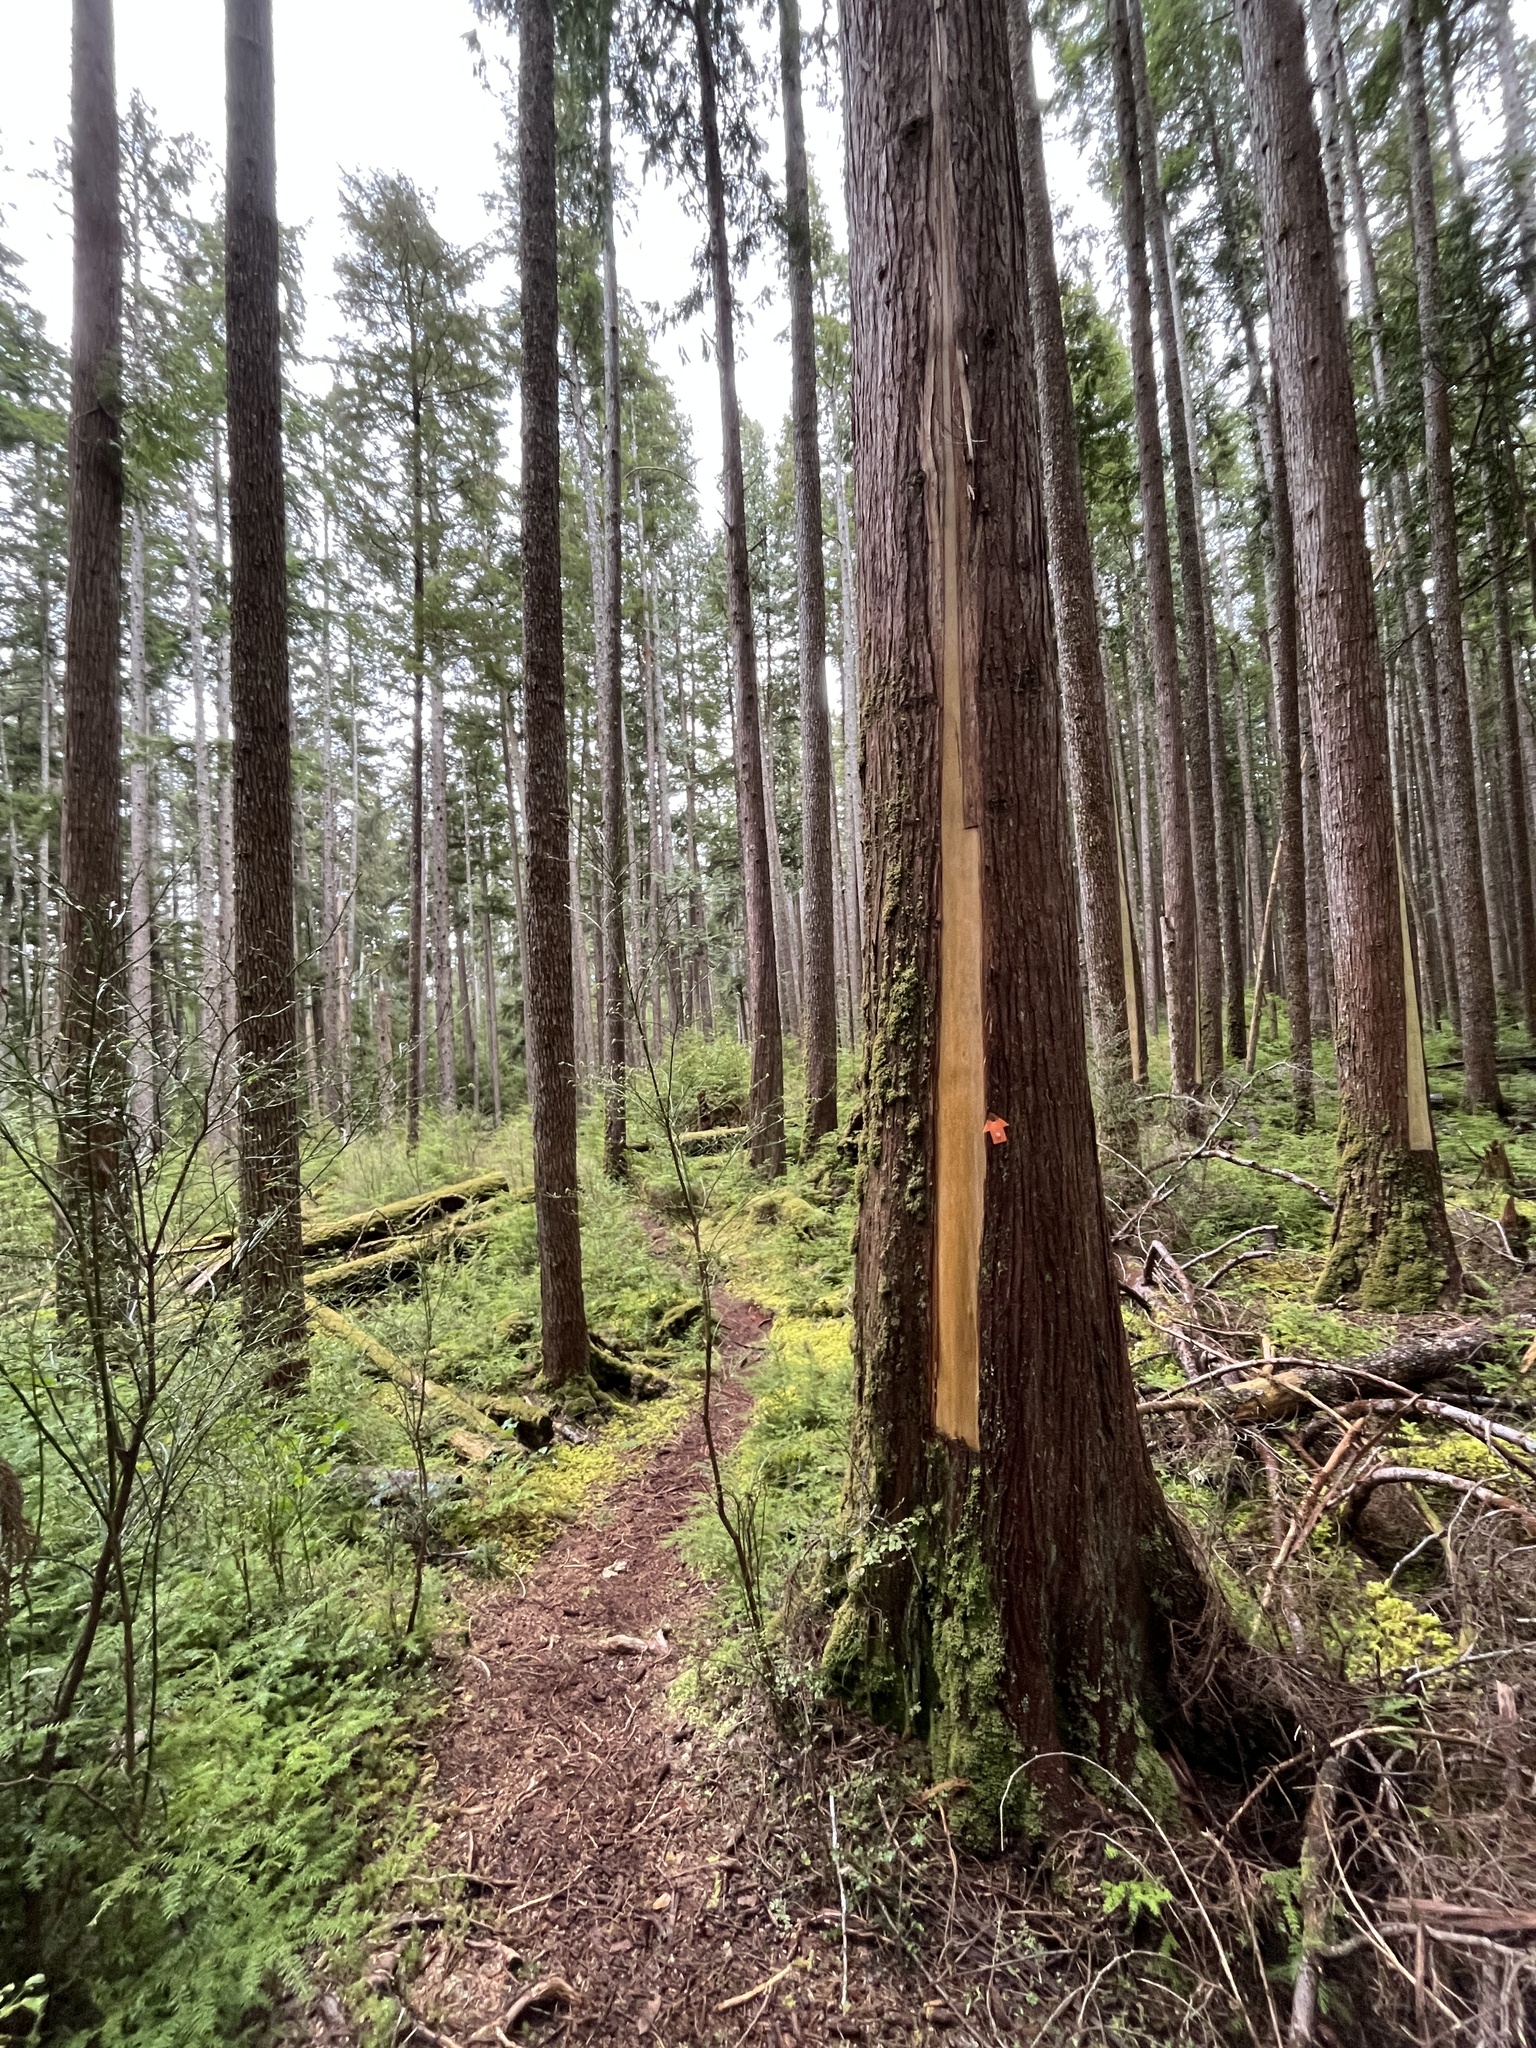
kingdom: Plantae
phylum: Tracheophyta
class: Pinopsida
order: Pinales
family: Cupressaceae
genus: Thuja
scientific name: Thuja plicata
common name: Western red-cedar
